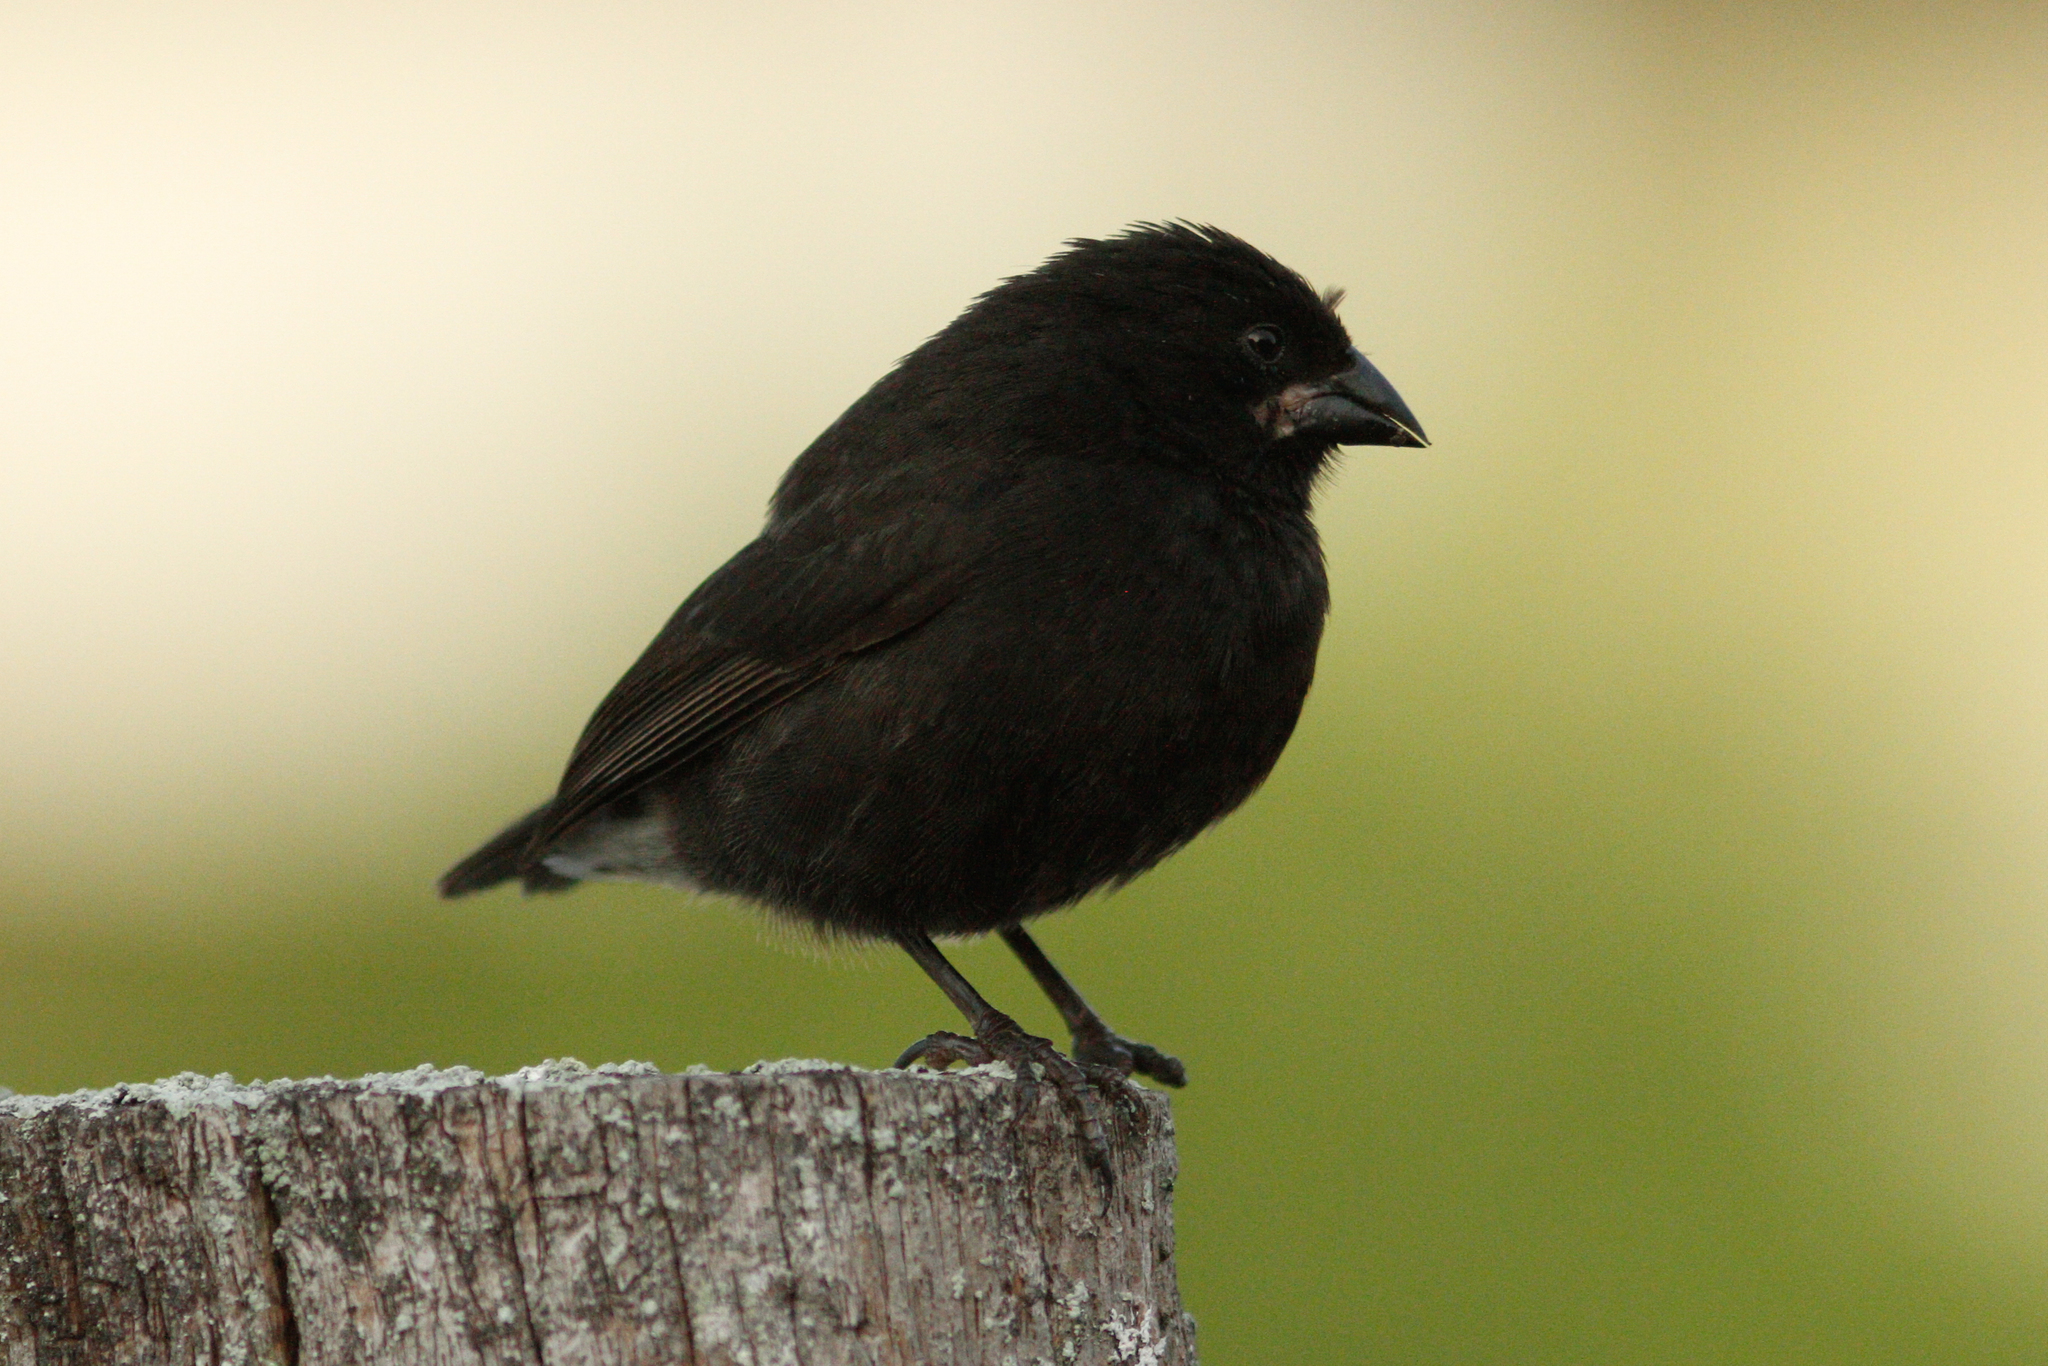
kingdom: Animalia
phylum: Chordata
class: Aves
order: Passeriformes
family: Thraupidae
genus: Geospiza
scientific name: Geospiza fuliginosa
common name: Small ground finch
